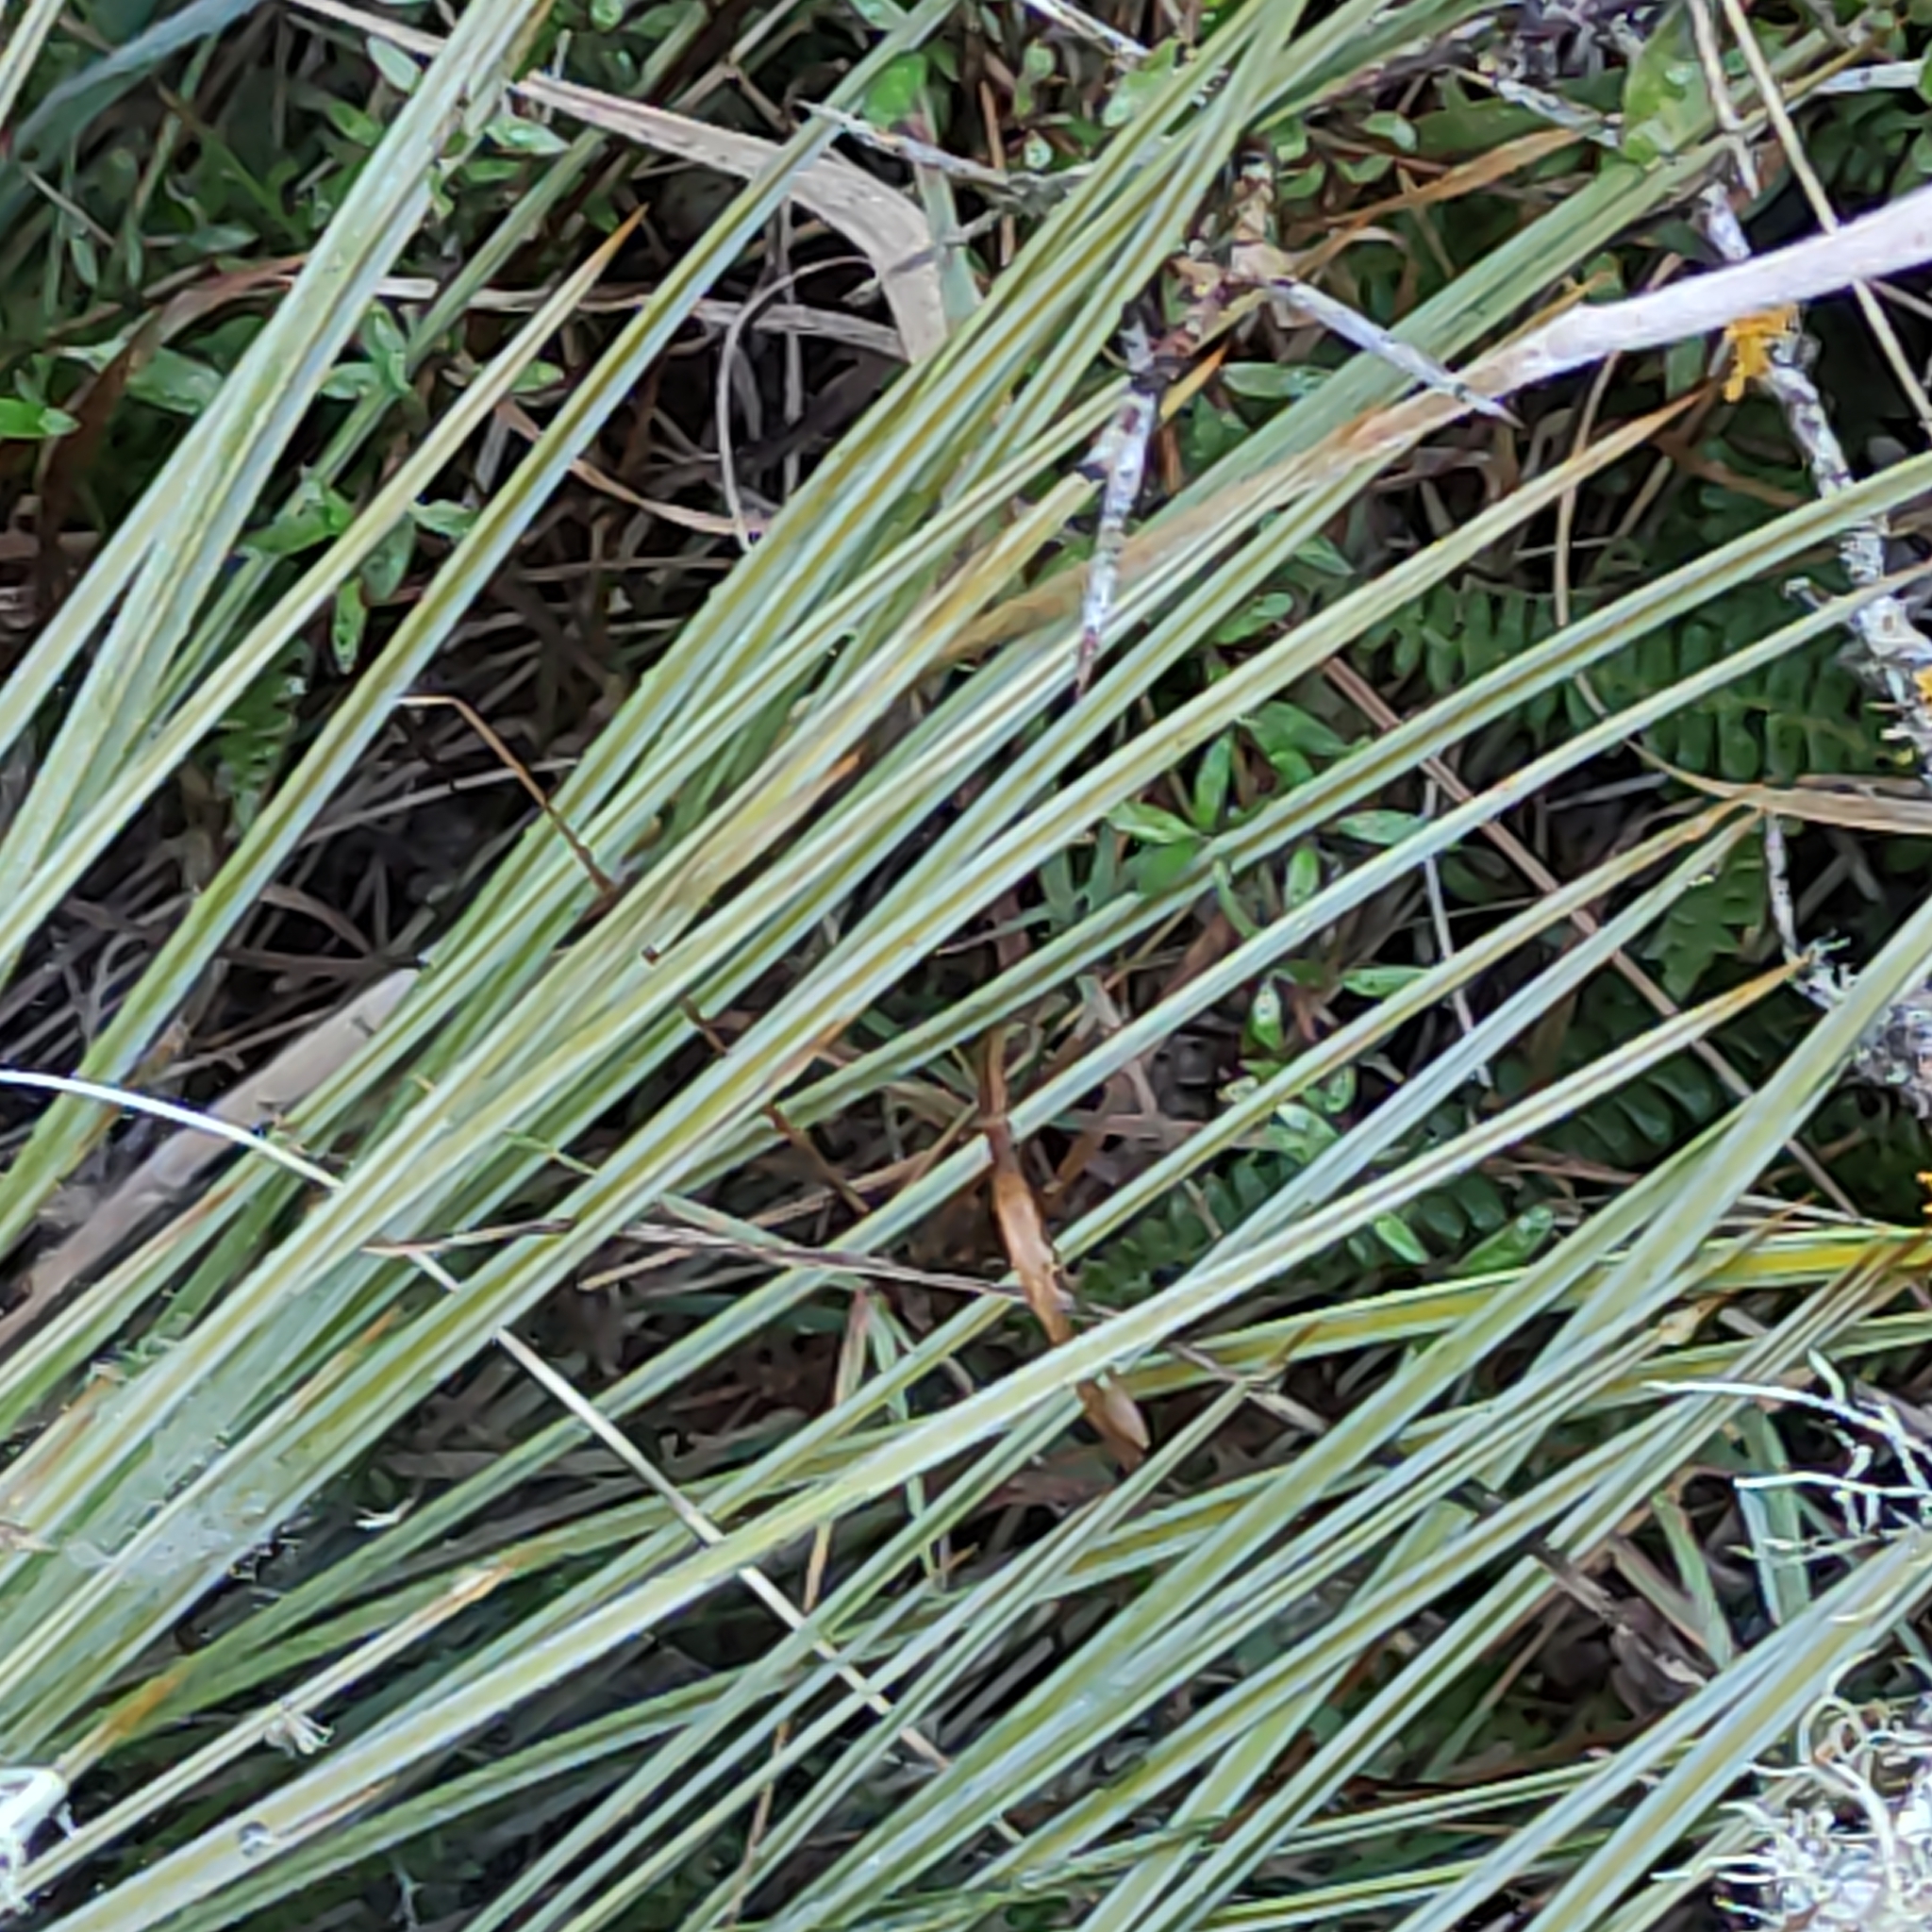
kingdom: Plantae
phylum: Tracheophyta
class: Magnoliopsida
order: Apiales
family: Apiaceae
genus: Aciphylla
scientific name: Aciphylla subflabellata
